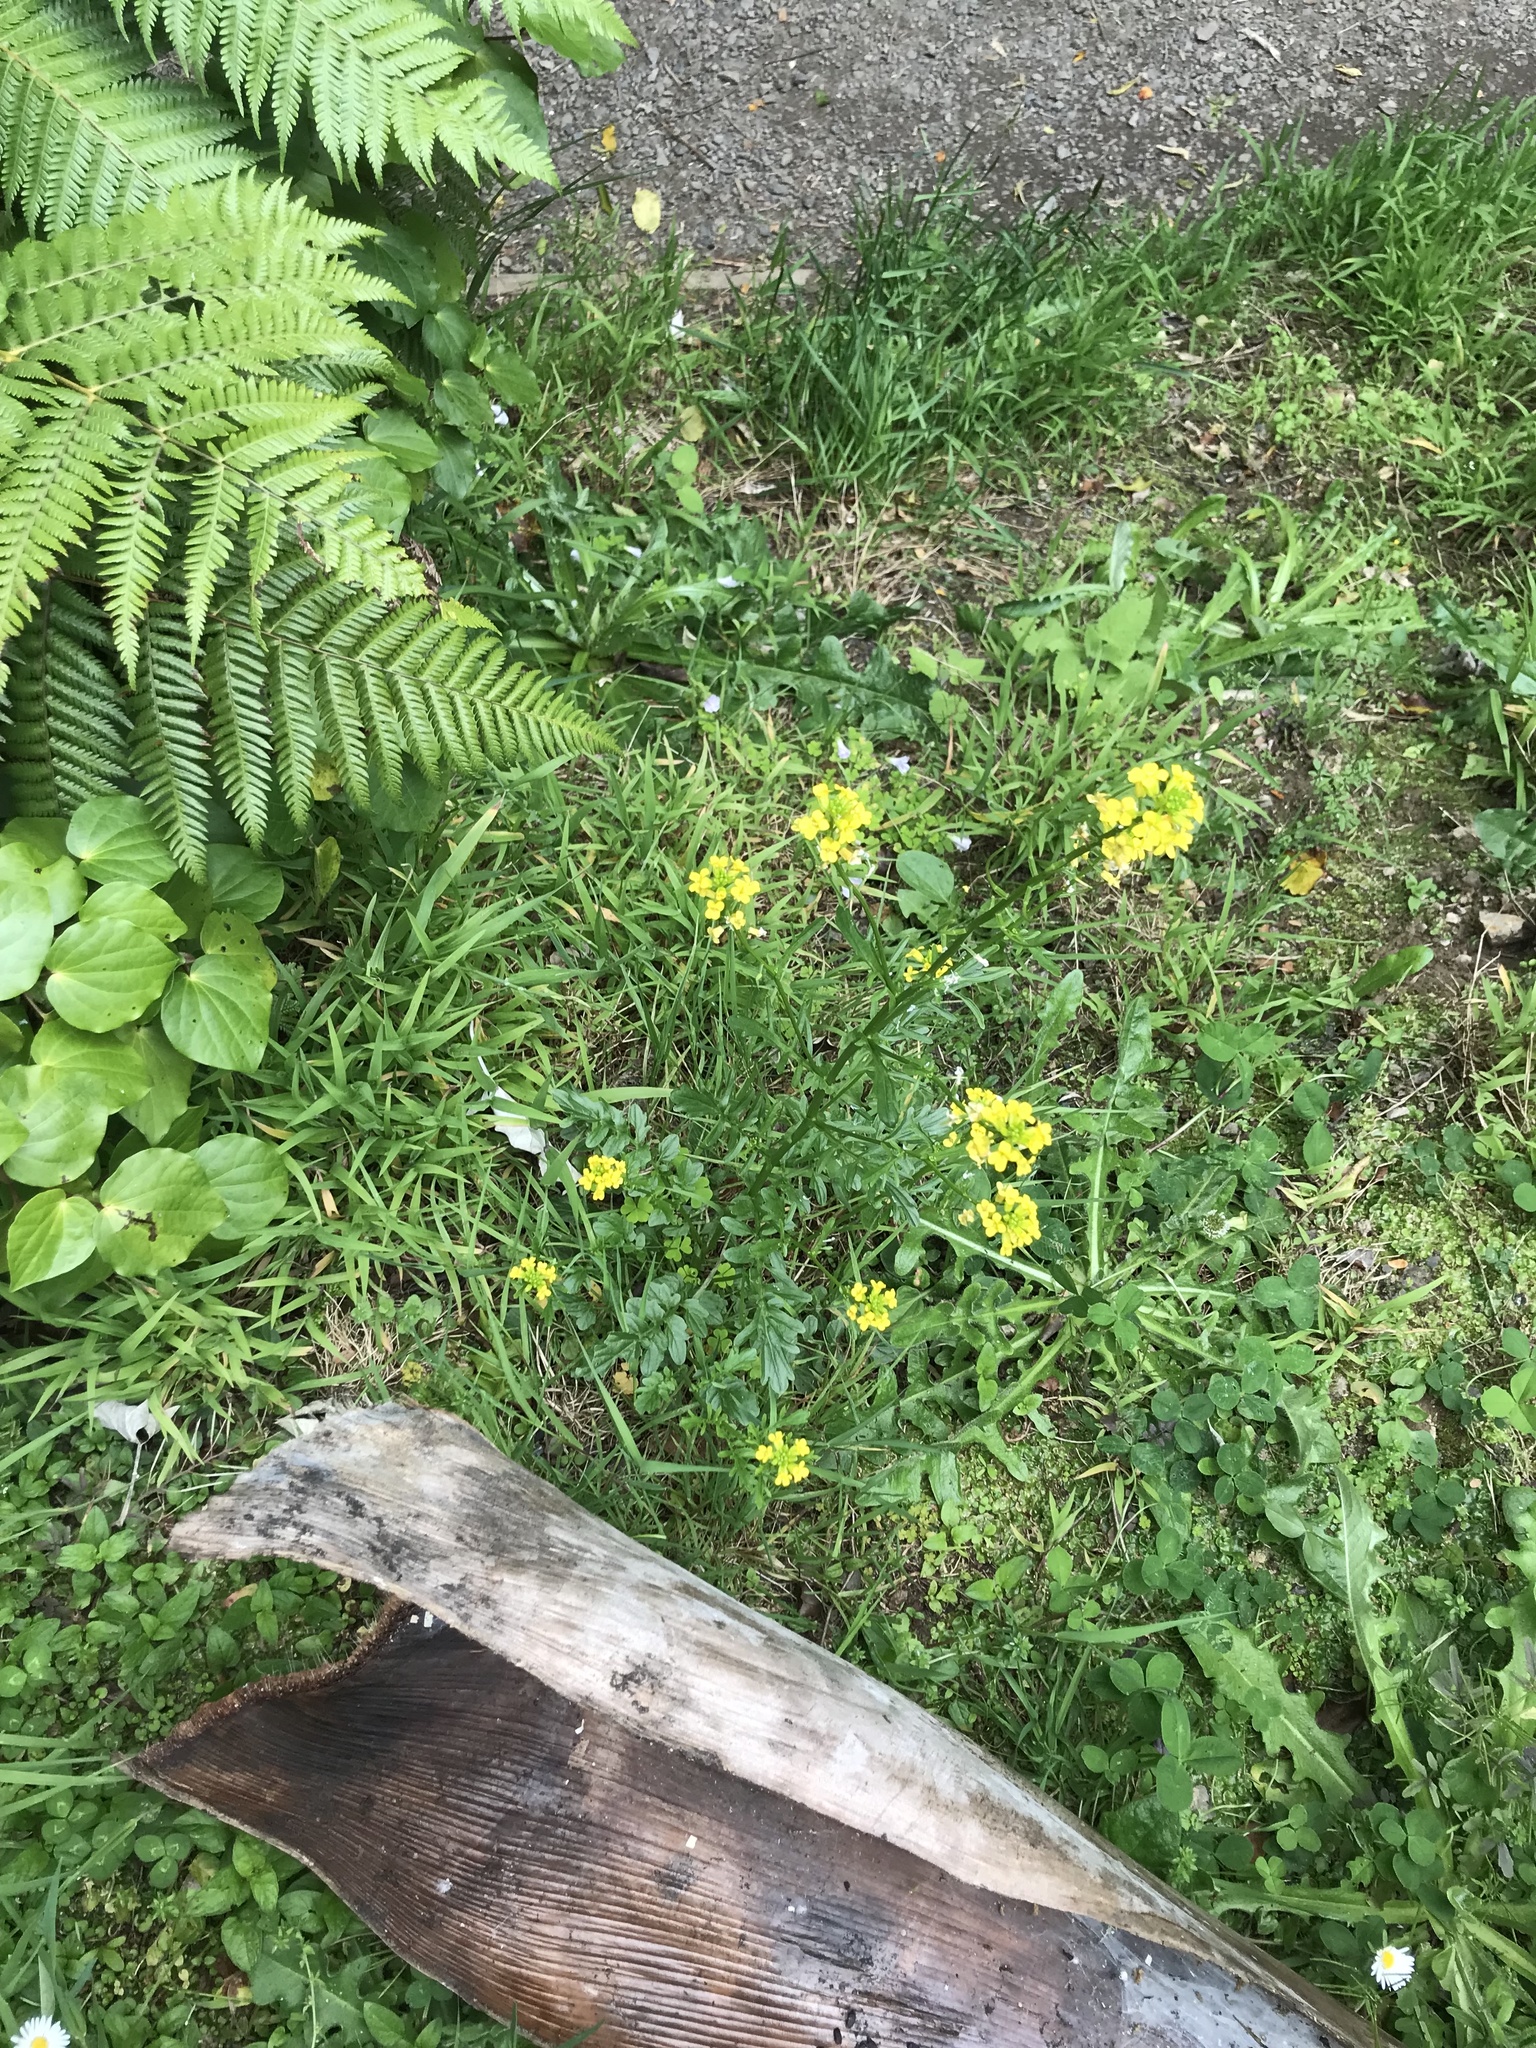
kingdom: Plantae
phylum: Tracheophyta
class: Magnoliopsida
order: Brassicales
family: Brassicaceae
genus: Barbarea
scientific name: Barbarea verna
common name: American cress
